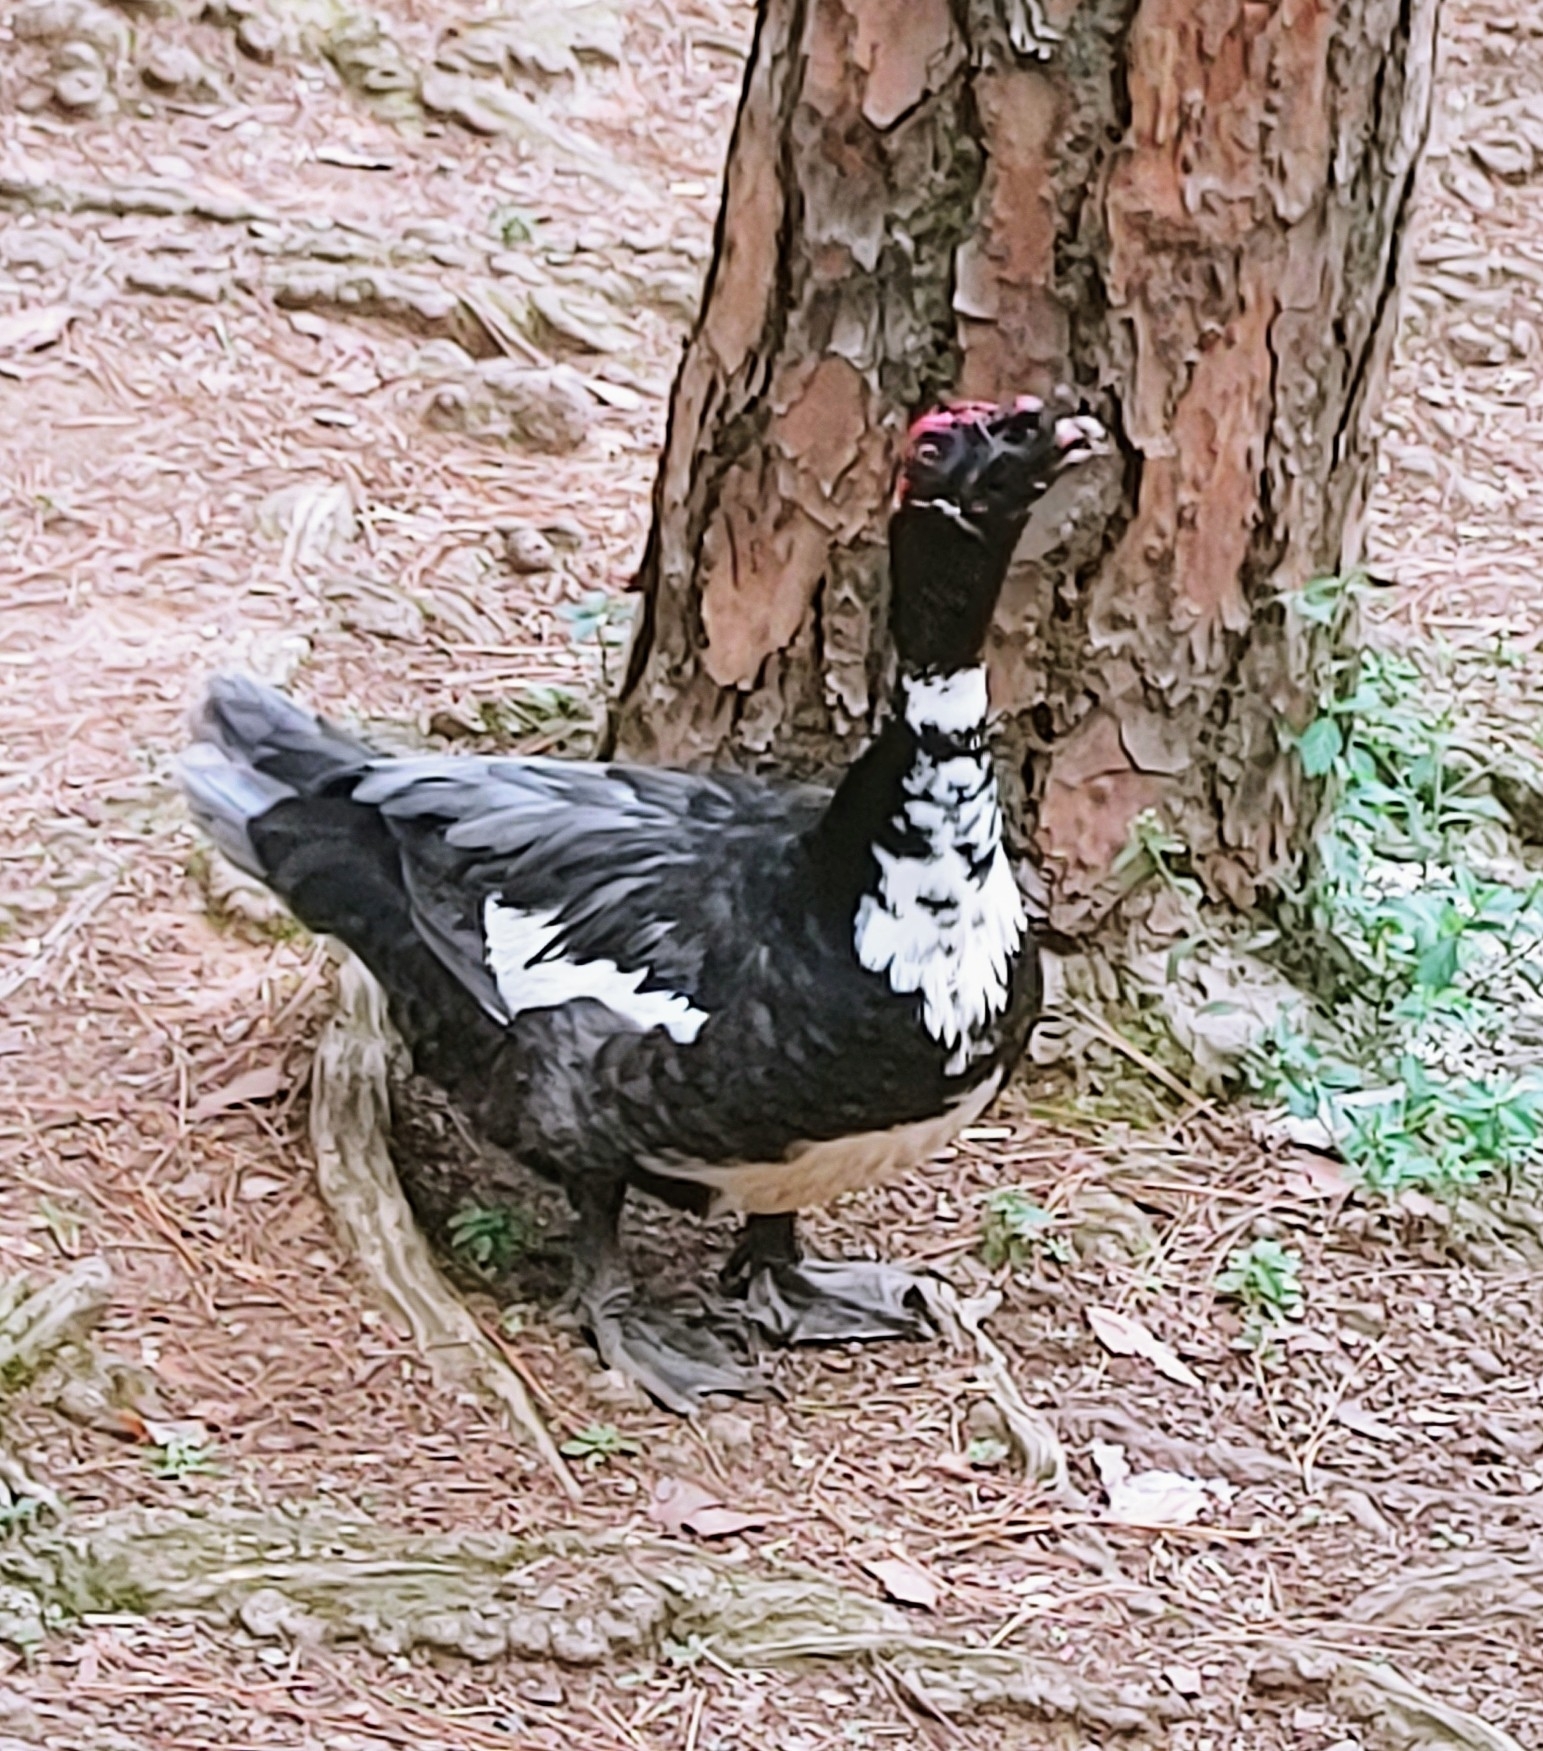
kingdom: Animalia
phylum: Chordata
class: Aves
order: Anseriformes
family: Anatidae
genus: Cairina
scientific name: Cairina moschata
